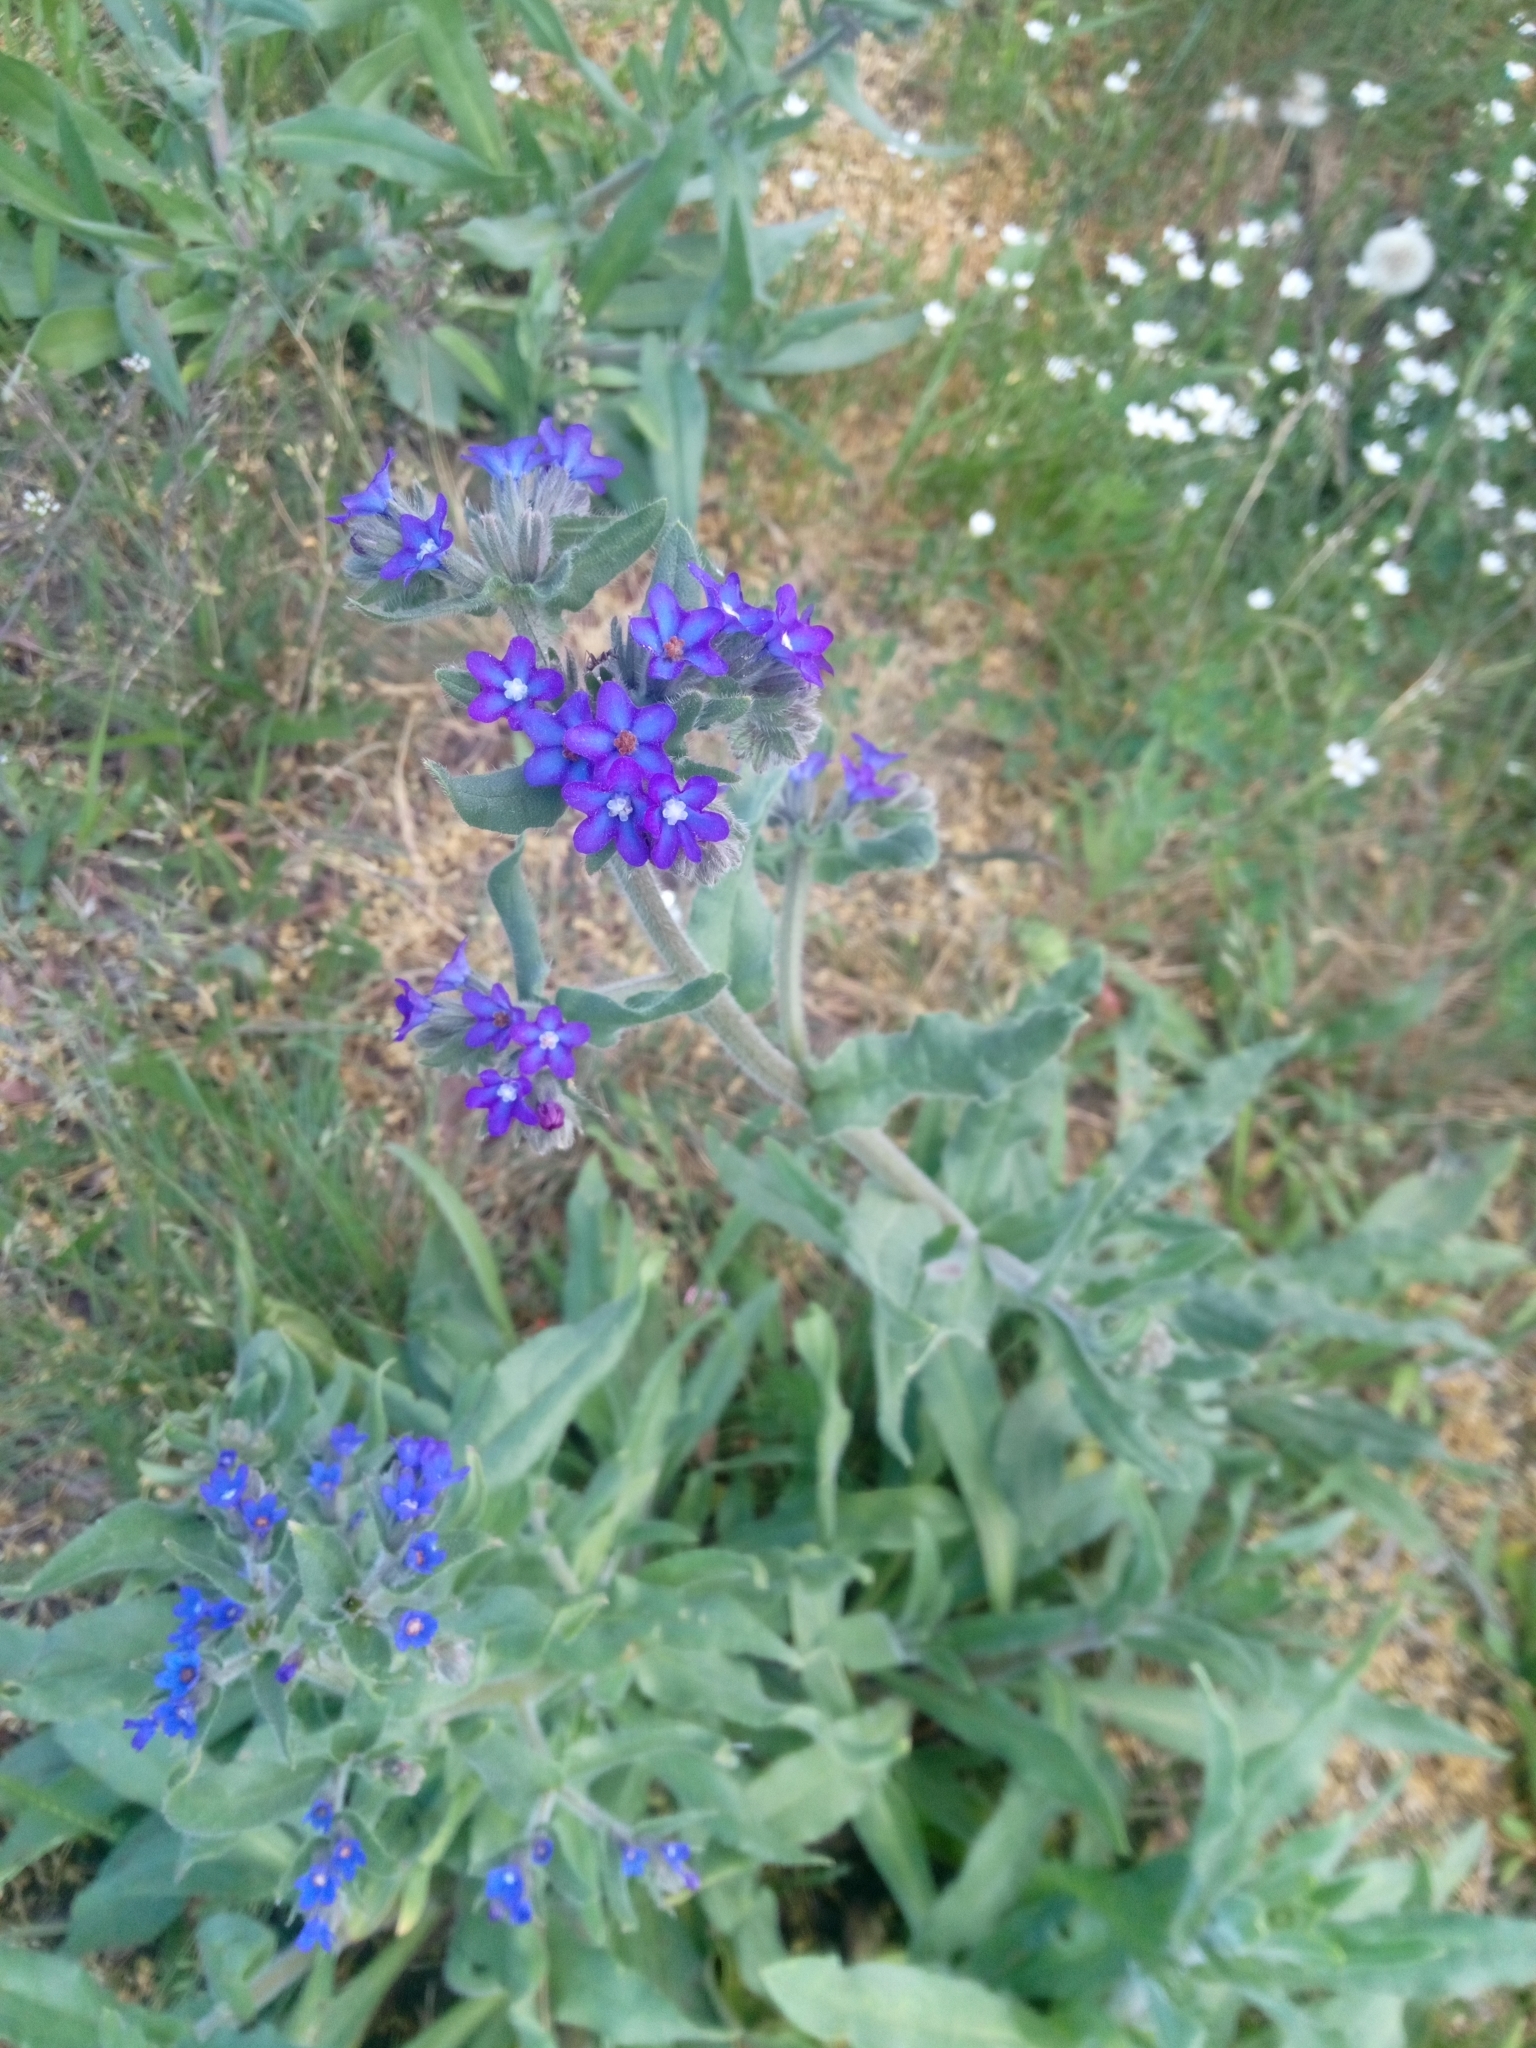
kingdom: Plantae
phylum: Tracheophyta
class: Magnoliopsida
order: Boraginales
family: Boraginaceae
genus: Anchusa
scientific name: Anchusa officinalis
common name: Alkanet
